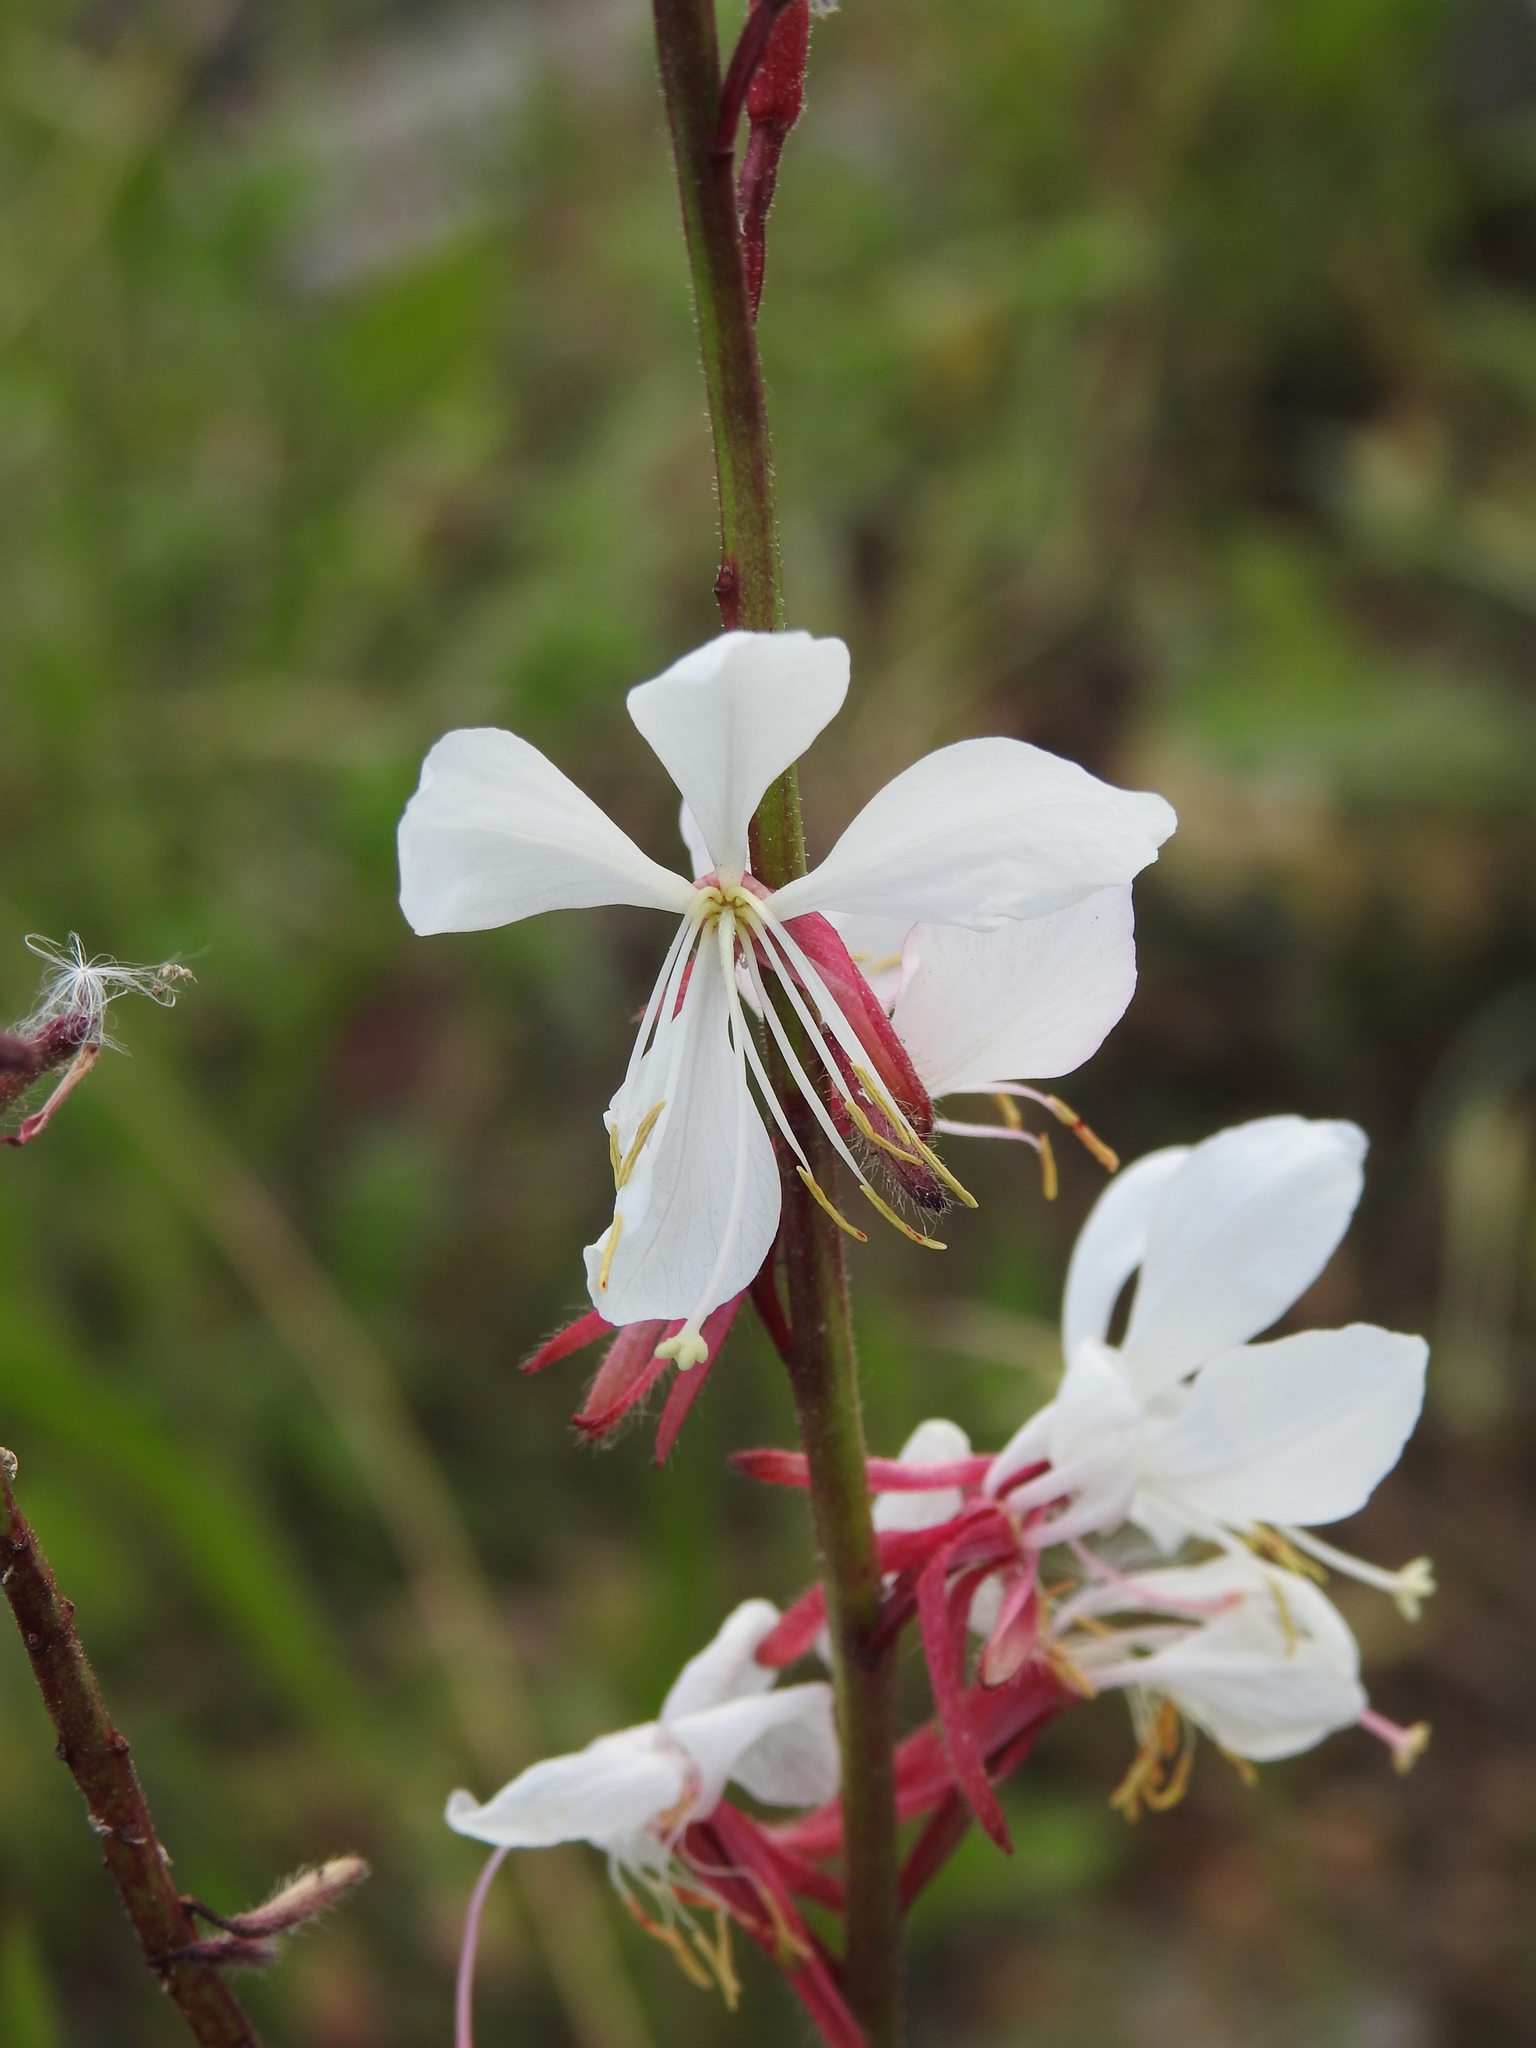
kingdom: Plantae
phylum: Tracheophyta
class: Magnoliopsida
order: Myrtales
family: Onagraceae
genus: Oenothera
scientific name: Oenothera lindheimeri
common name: Lindheimer's beeblossom
